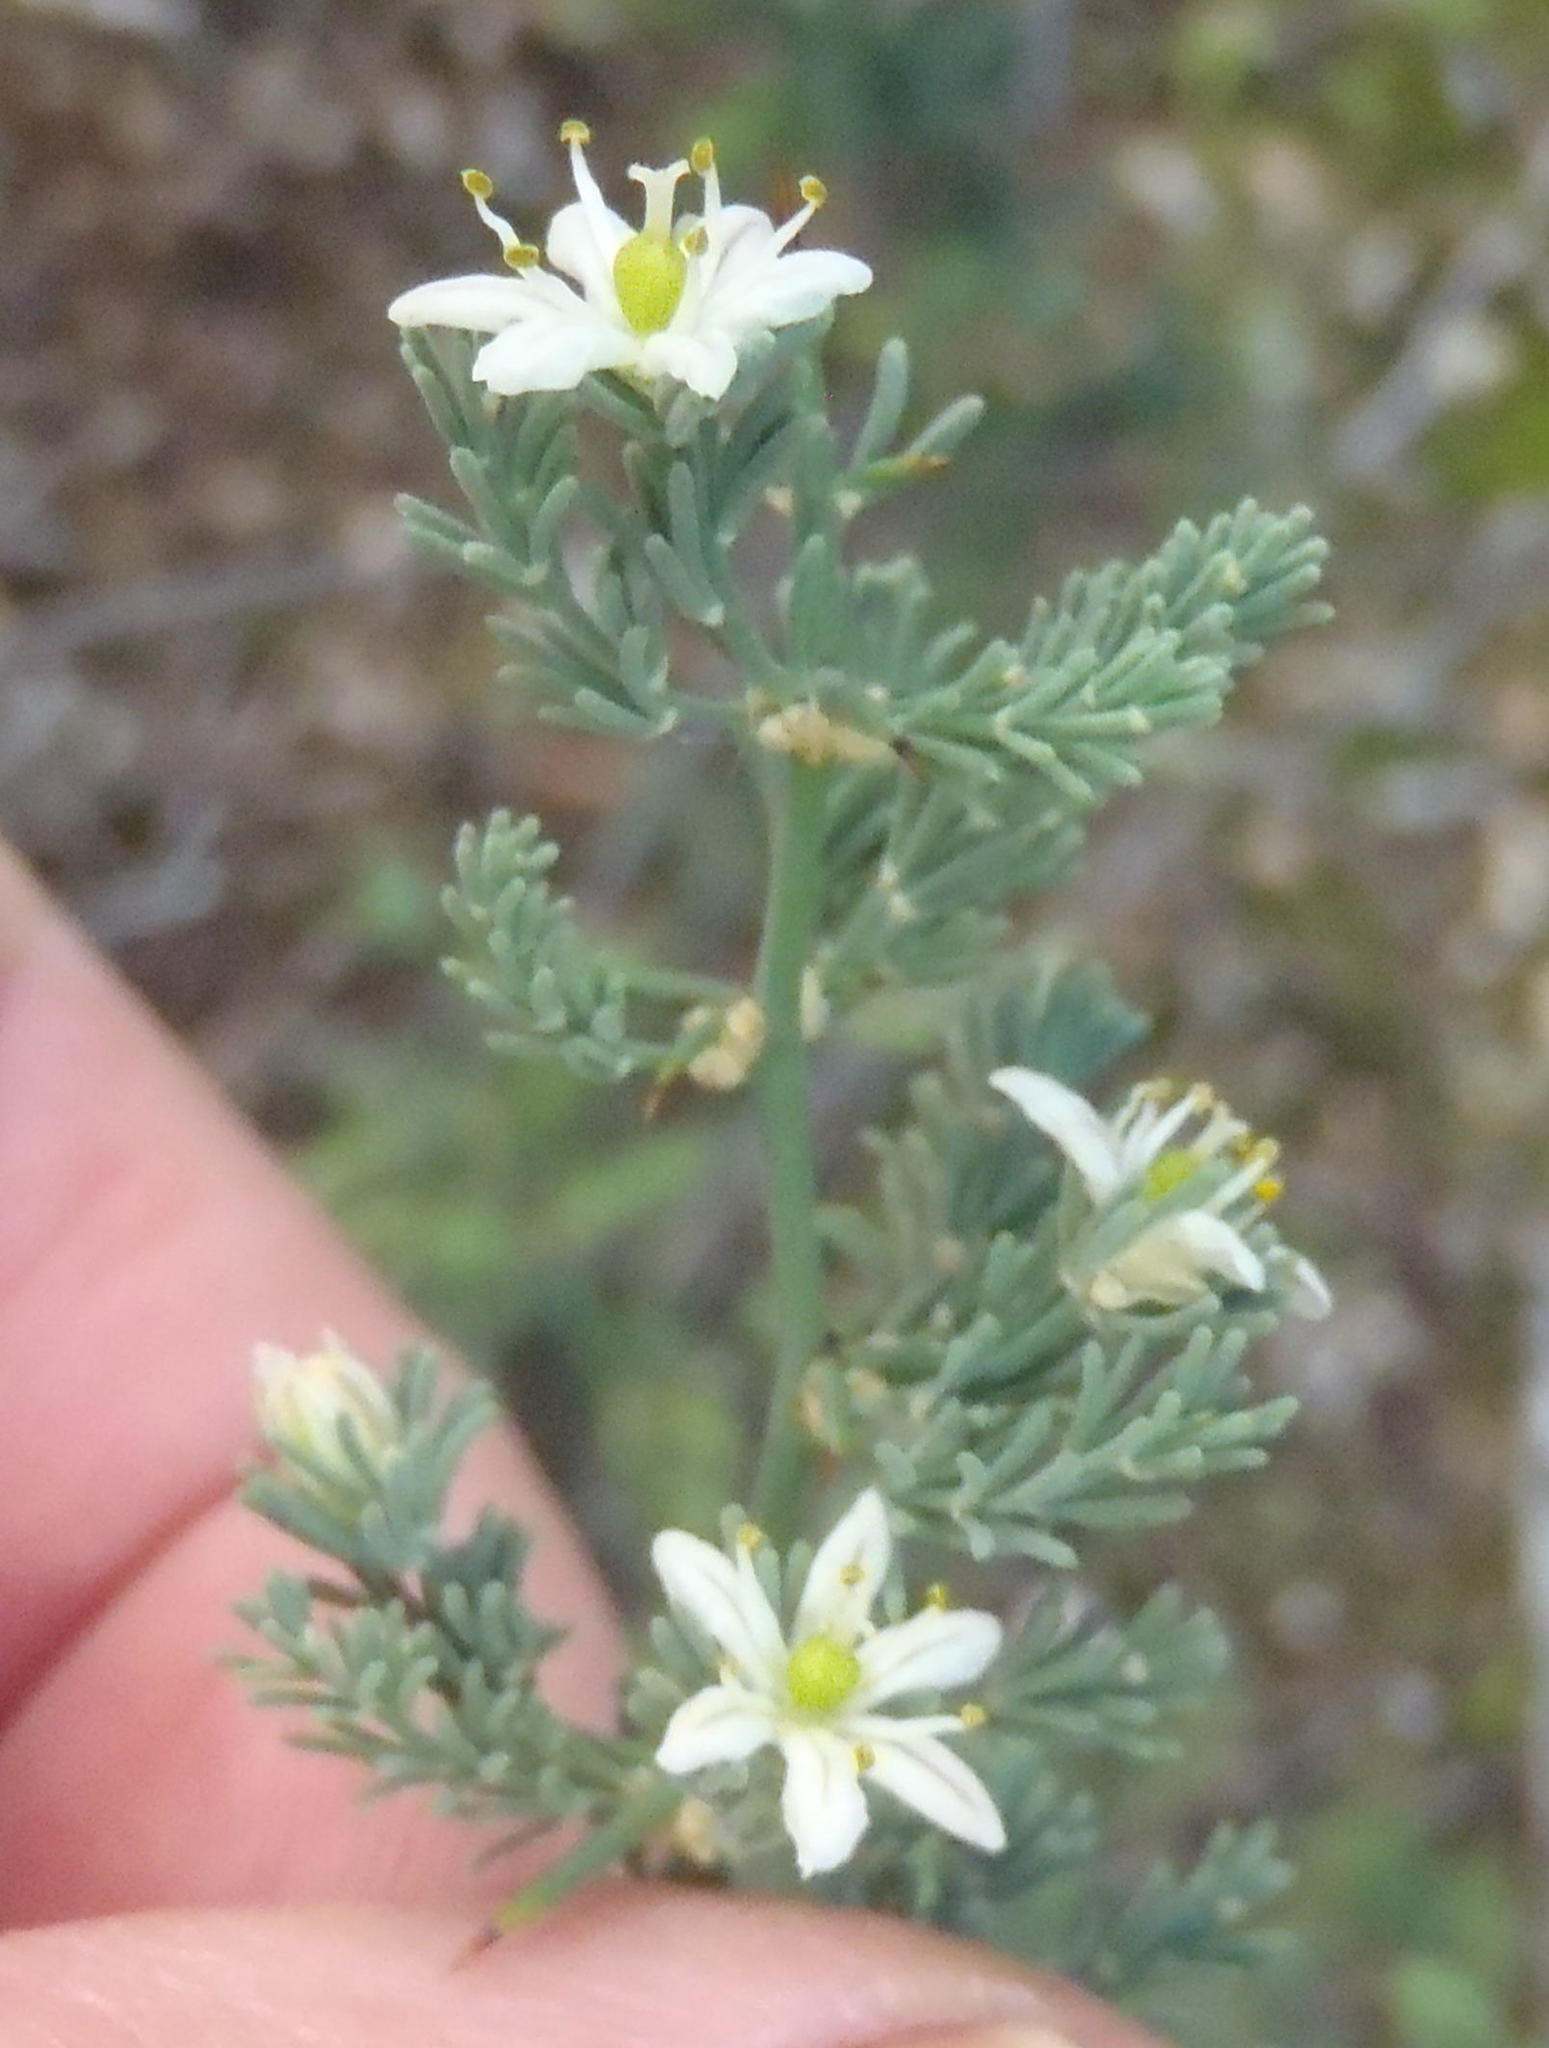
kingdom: Plantae
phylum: Tracheophyta
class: Liliopsida
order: Asparagales
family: Asparagaceae
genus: Asparagus
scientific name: Asparagus capensis
